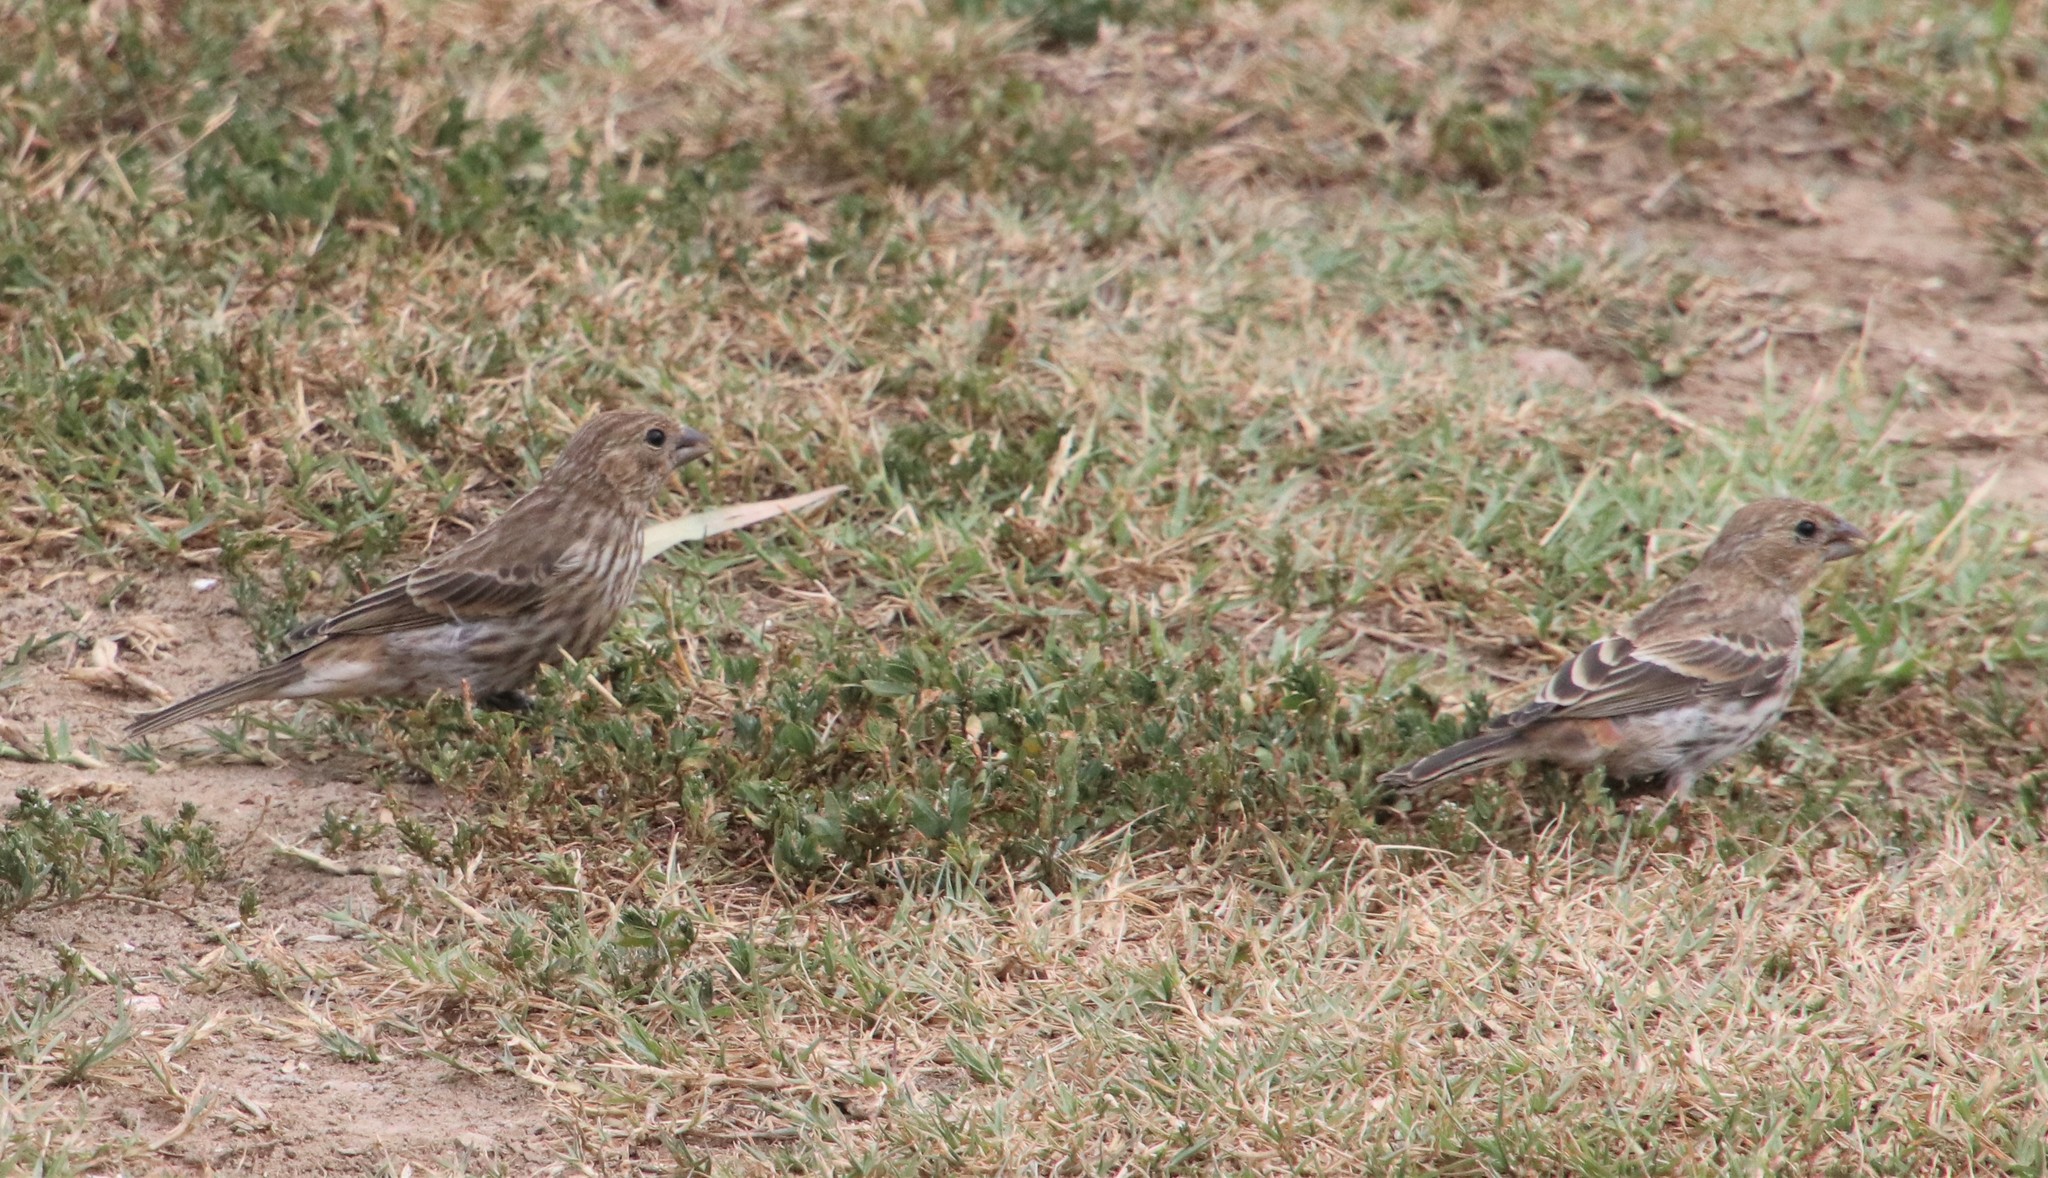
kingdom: Animalia
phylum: Chordata
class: Aves
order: Passeriformes
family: Fringillidae
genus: Haemorhous
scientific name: Haemorhous mexicanus
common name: House finch
